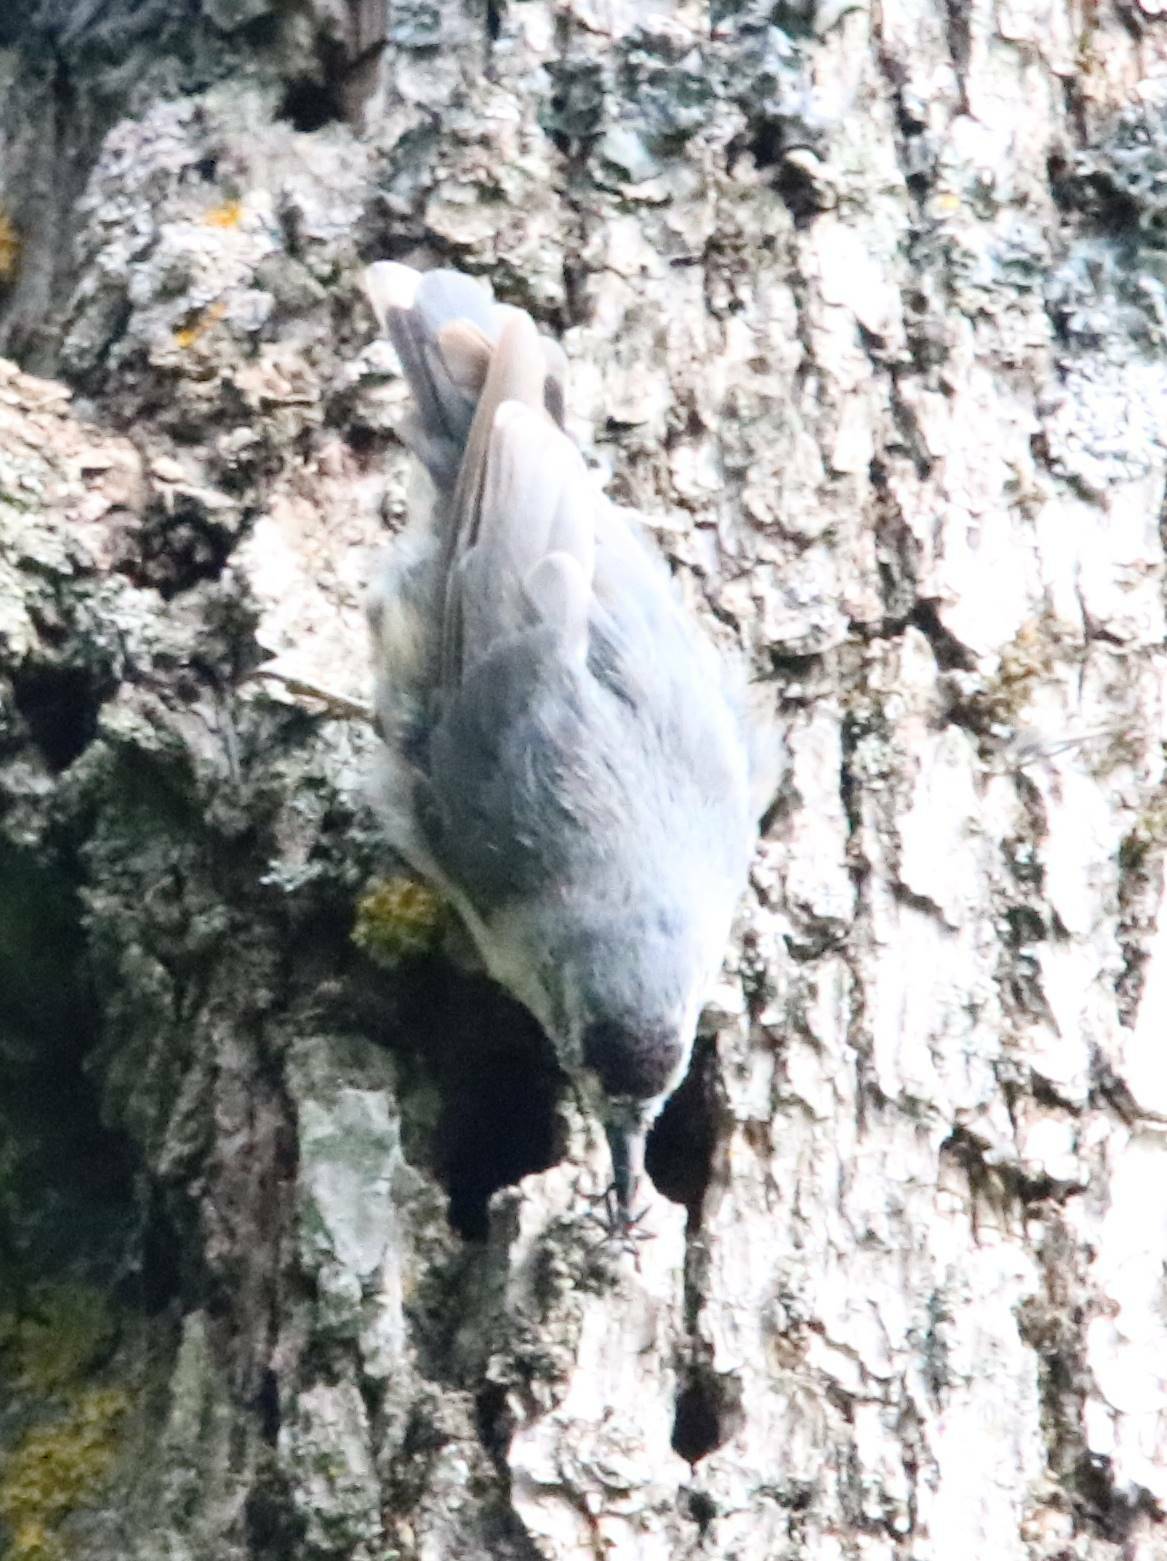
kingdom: Animalia
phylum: Chordata
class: Aves
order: Passeriformes
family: Sittidae
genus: Sitta
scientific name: Sitta ledanti
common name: Algerian nuthatch
